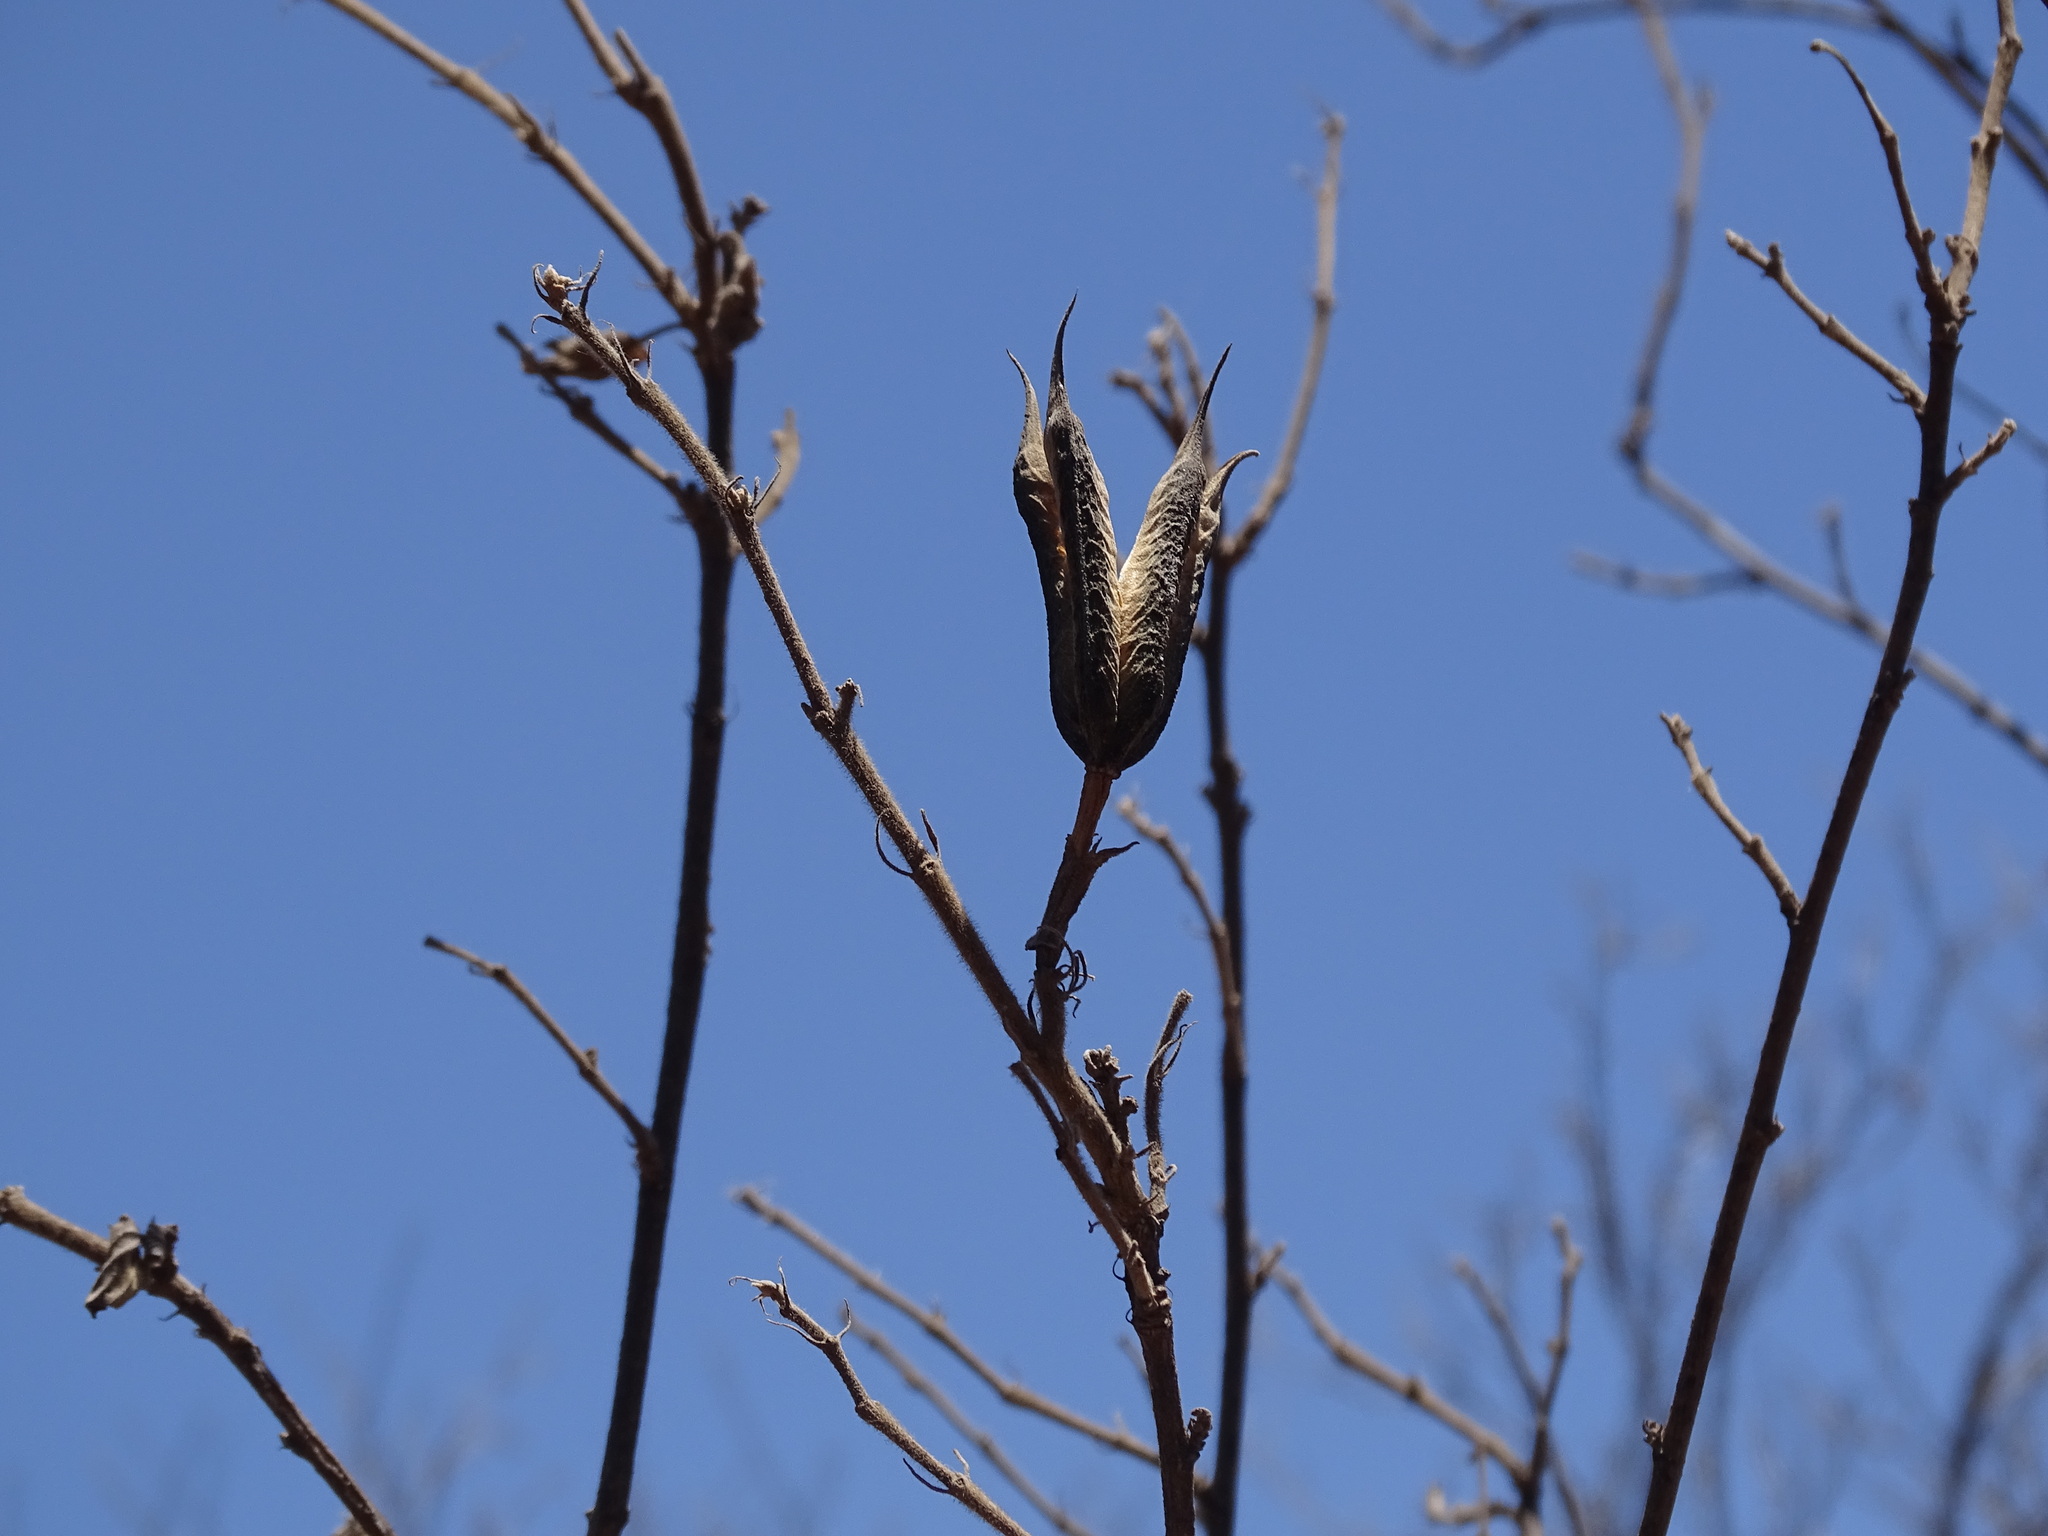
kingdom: Plantae
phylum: Tracheophyta
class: Magnoliopsida
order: Malvales
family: Malvaceae
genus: Helicteres
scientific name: Helicteres vegae
